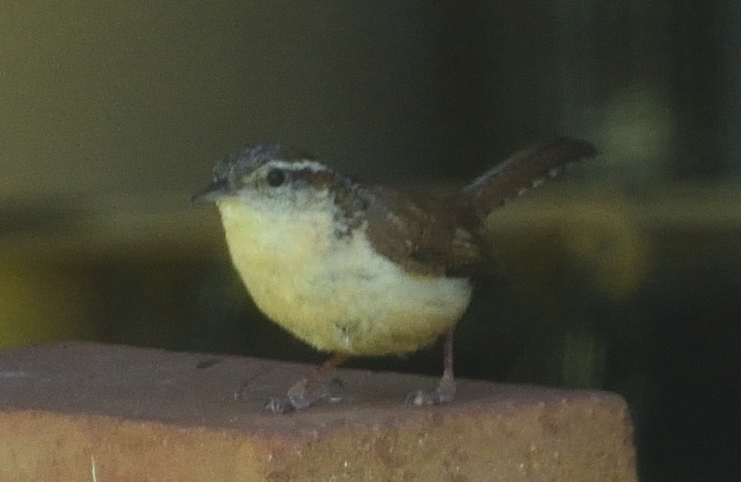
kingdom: Animalia
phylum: Chordata
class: Aves
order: Passeriformes
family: Troglodytidae
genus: Thryothorus
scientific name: Thryothorus ludovicianus
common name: Carolina wren
